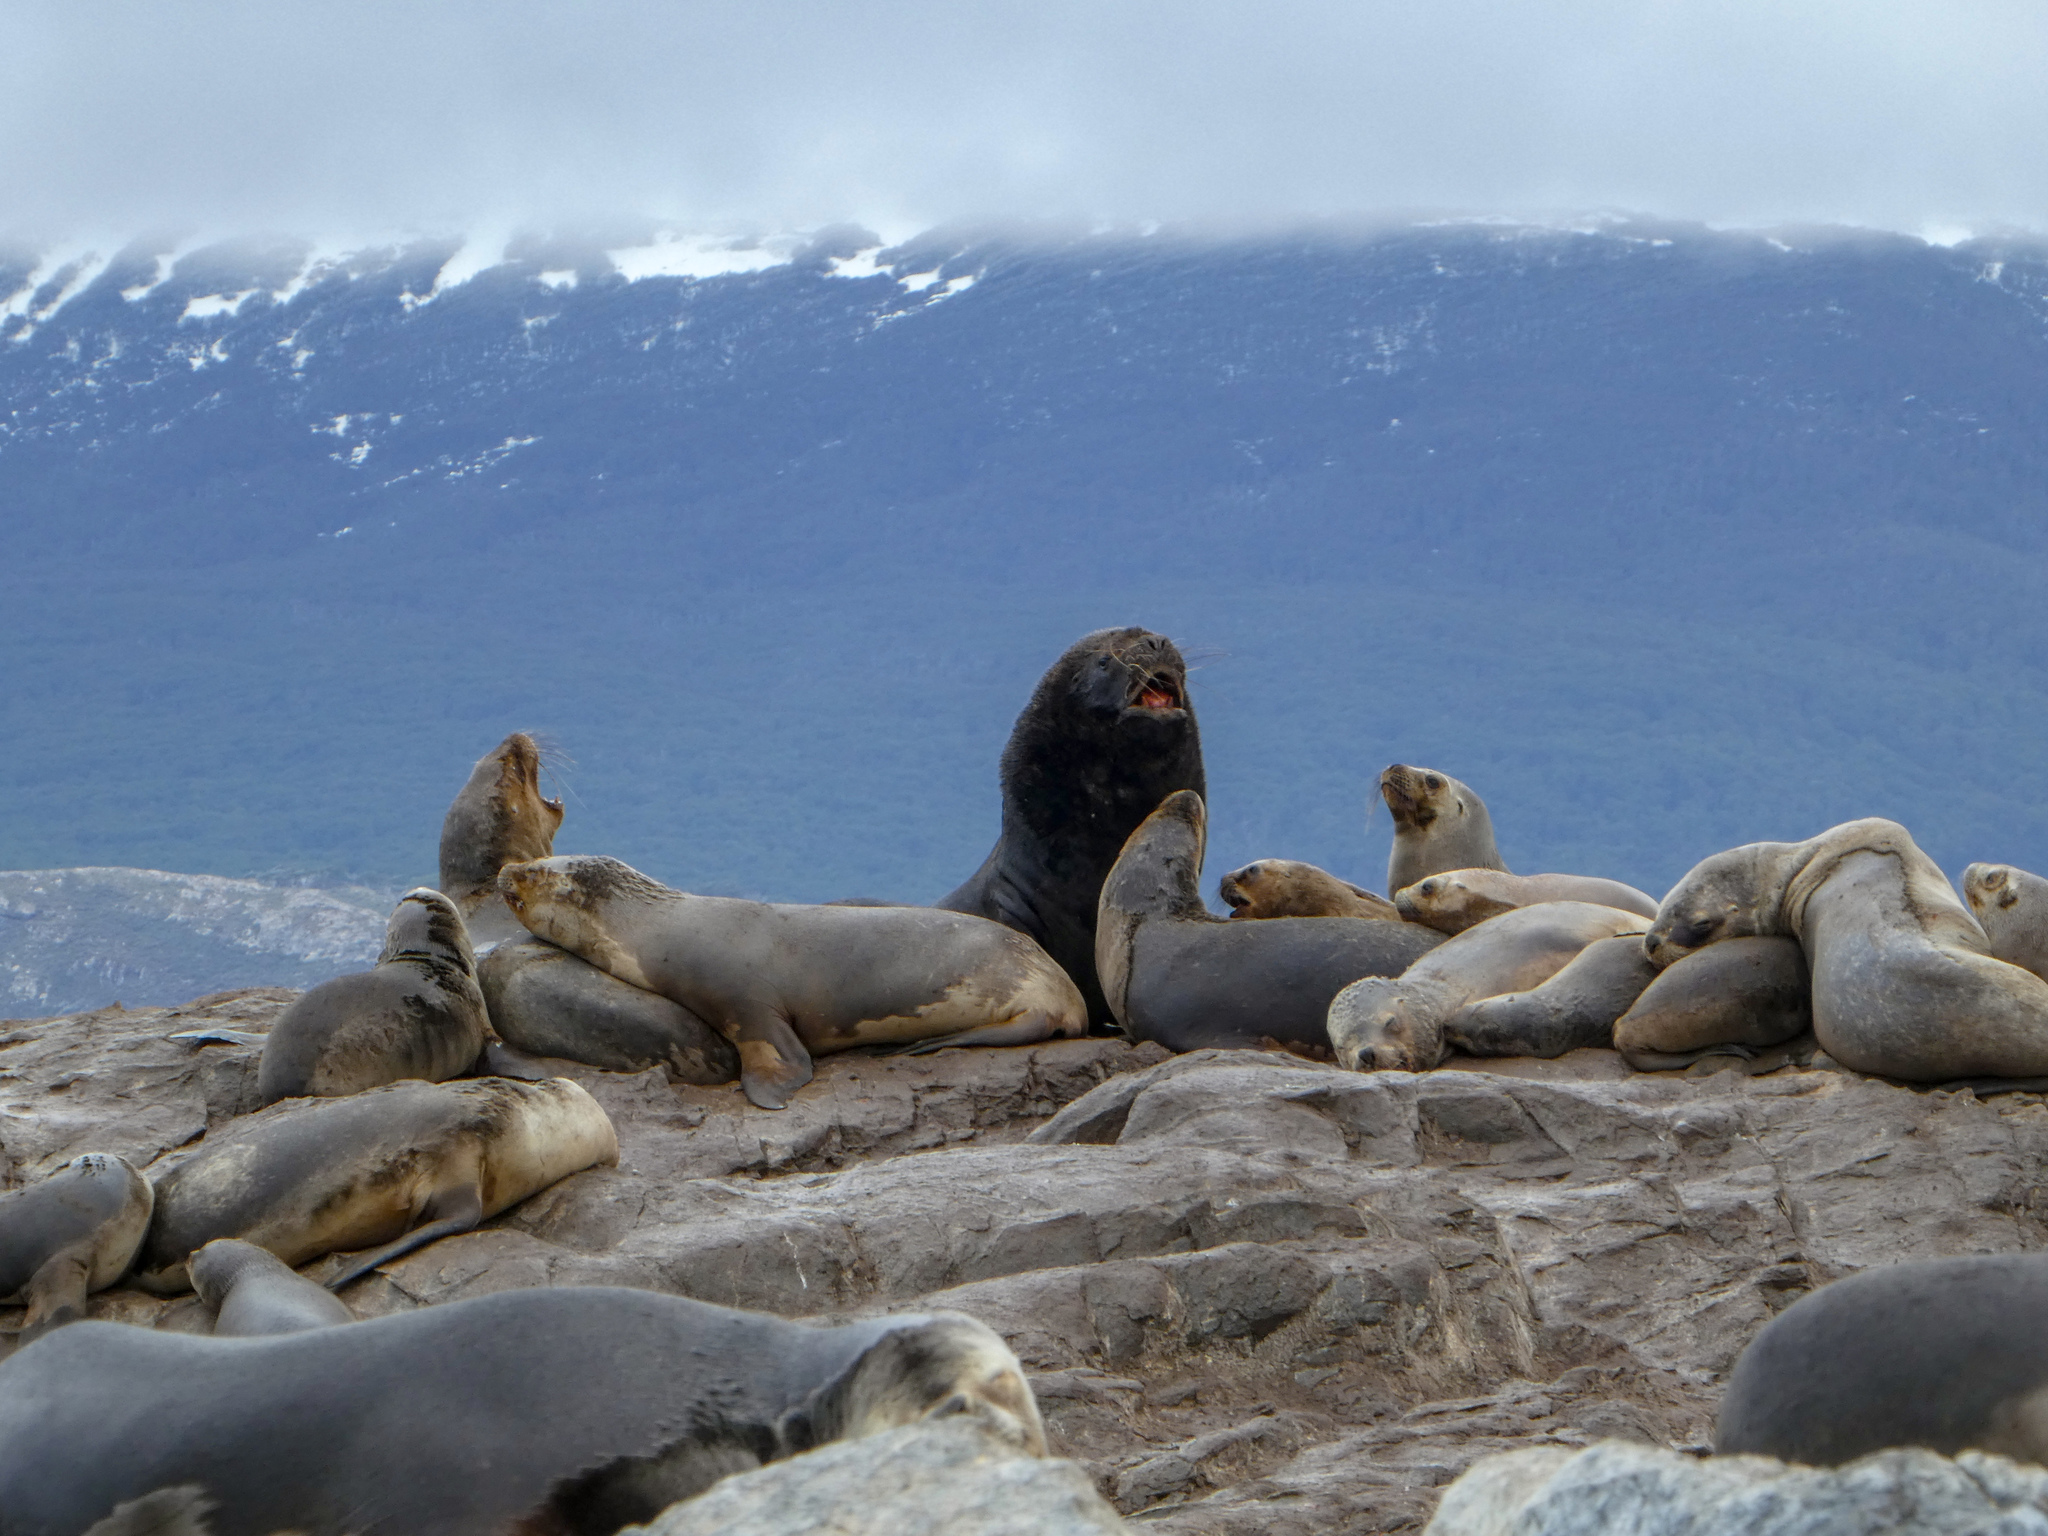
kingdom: Animalia
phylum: Chordata
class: Mammalia
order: Carnivora
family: Otariidae
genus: Otaria
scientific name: Otaria byronia
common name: South american sea lion
